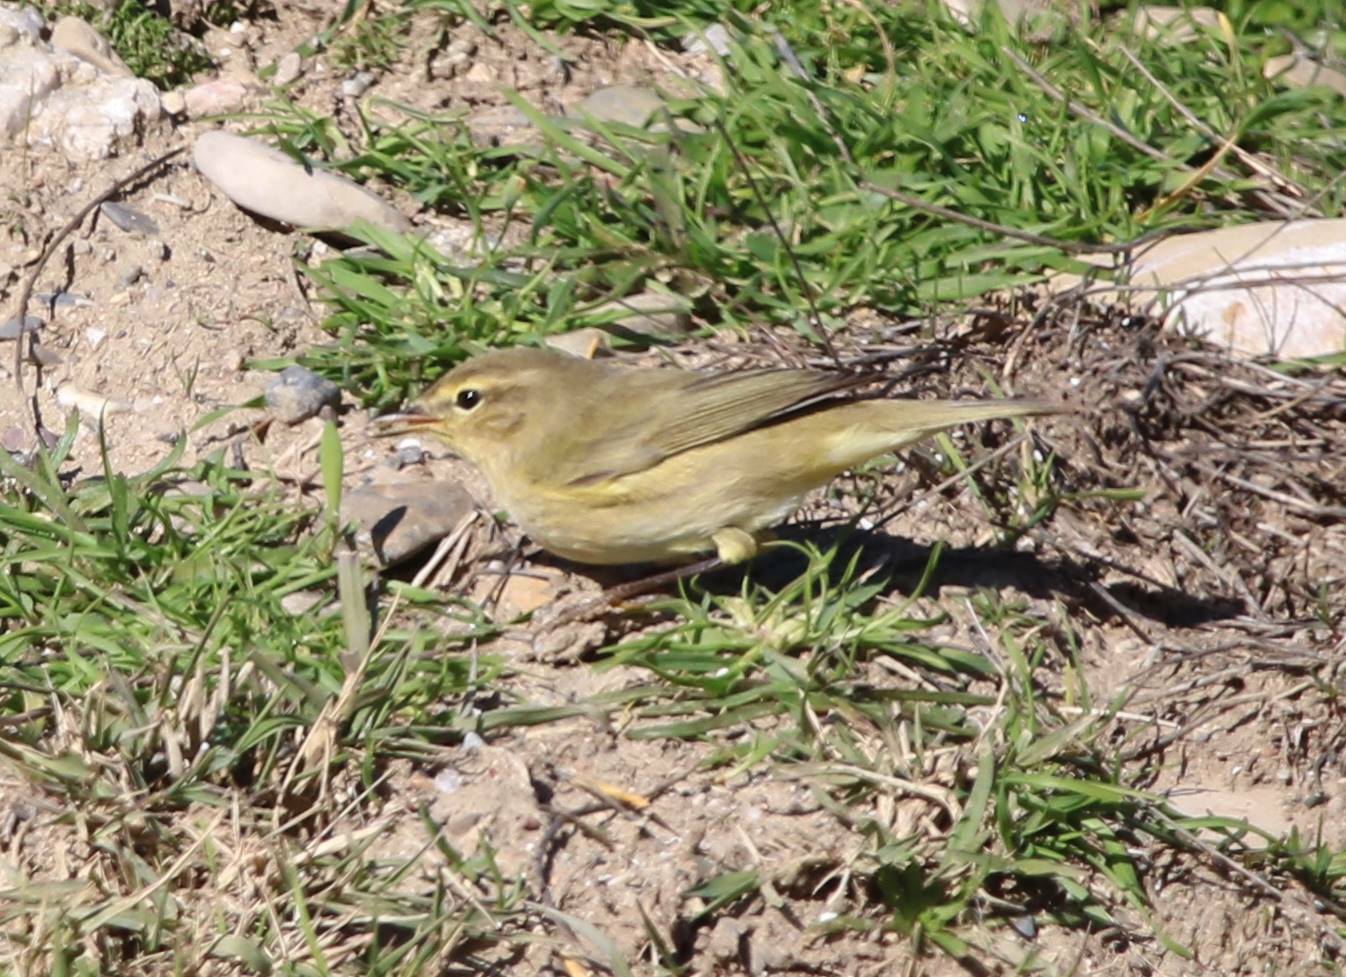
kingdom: Animalia
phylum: Chordata
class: Aves
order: Passeriformes
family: Phylloscopidae
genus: Phylloscopus
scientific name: Phylloscopus collybita
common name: Common chiffchaff
